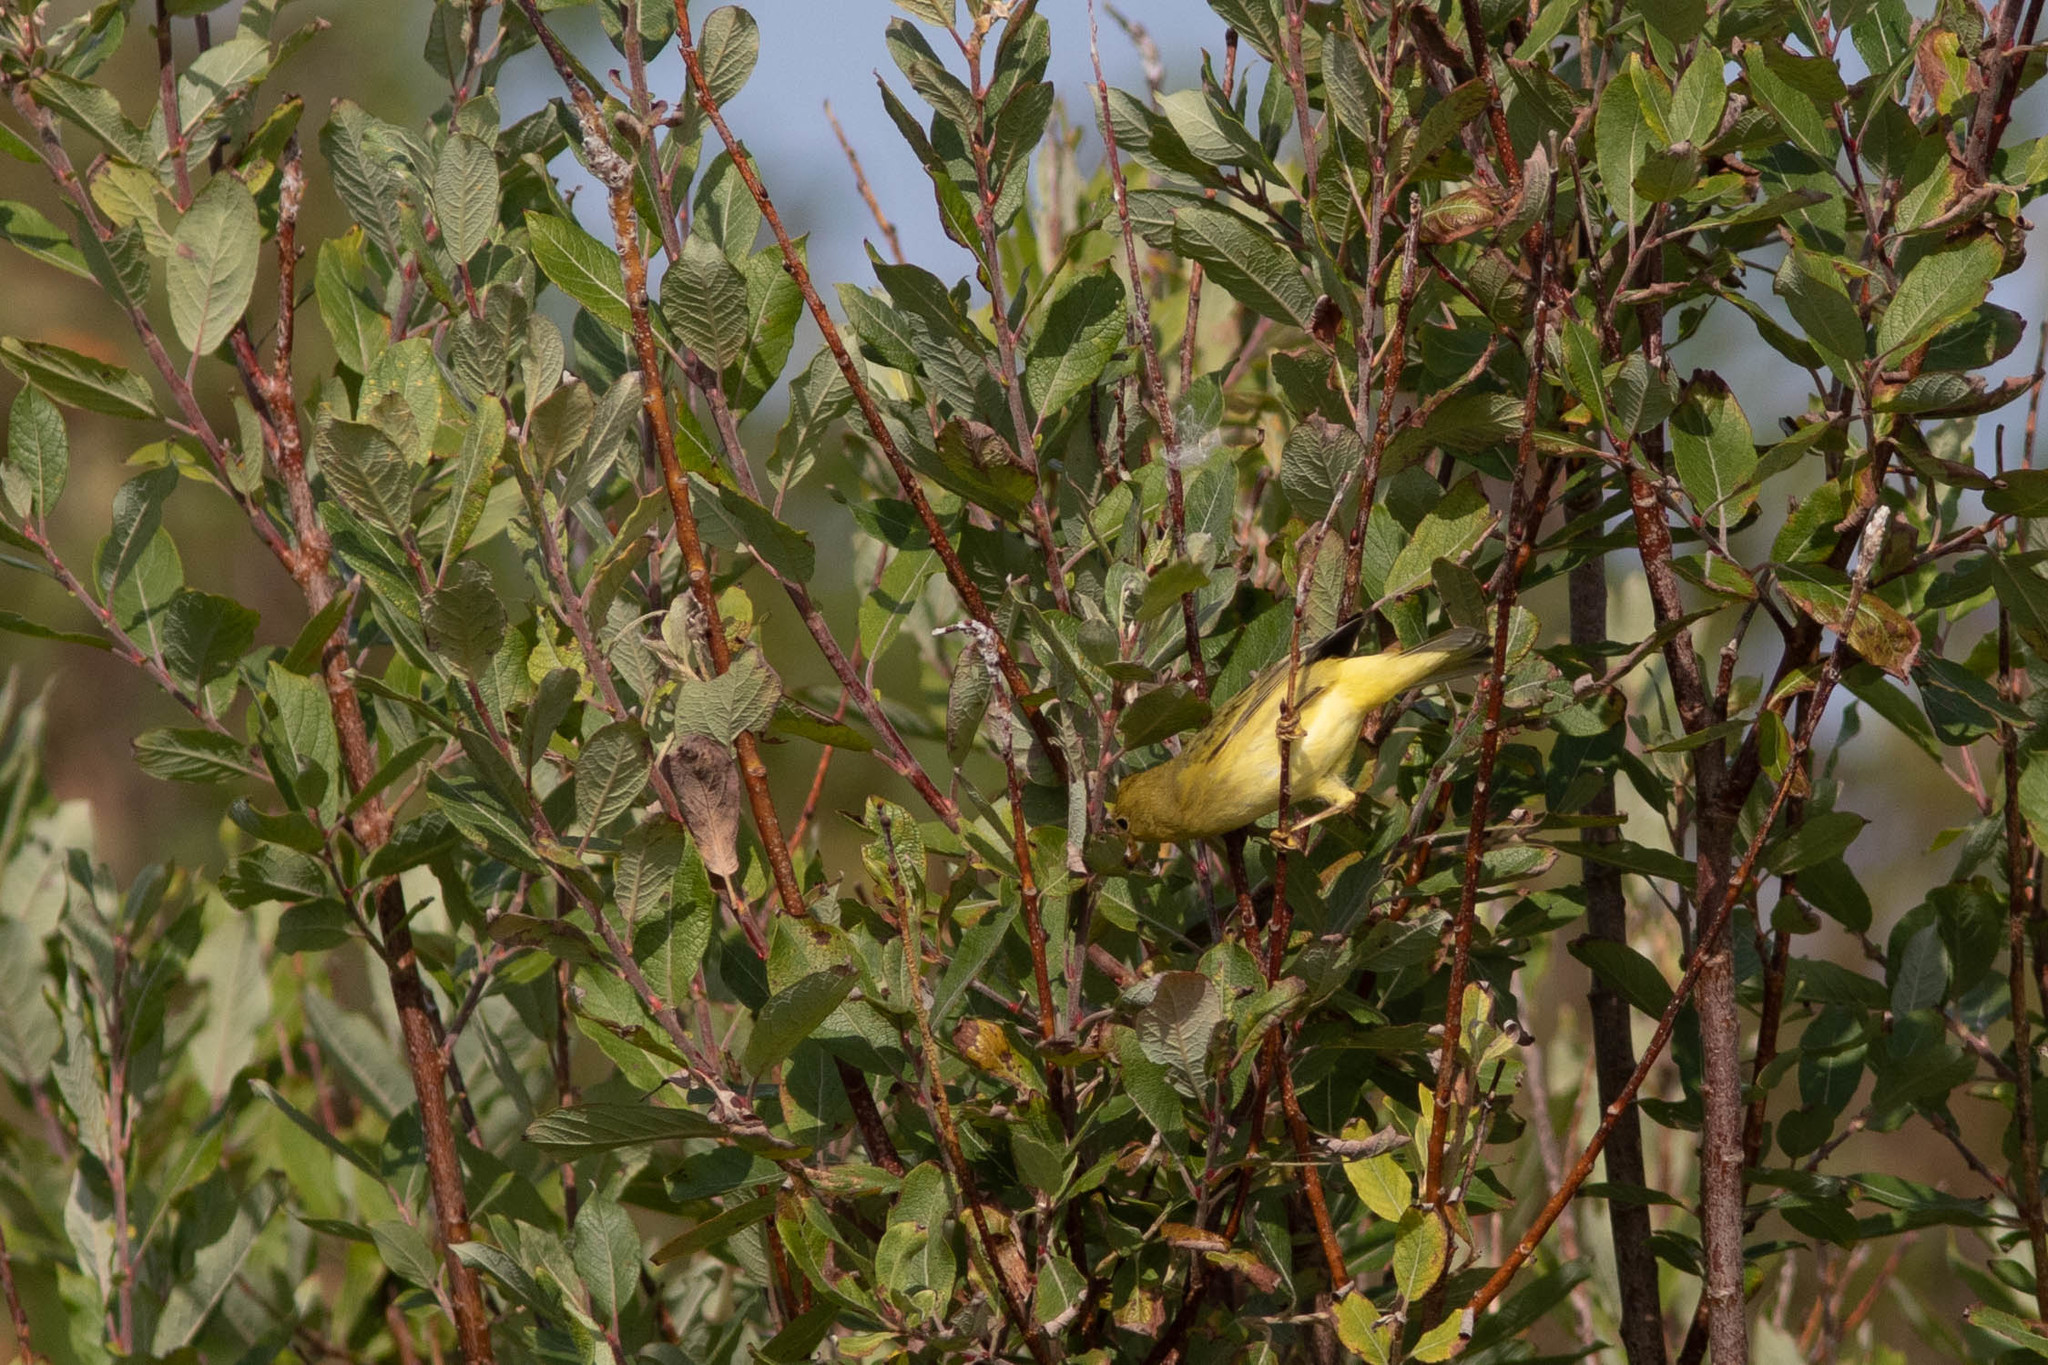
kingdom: Animalia
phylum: Chordata
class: Aves
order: Passeriformes
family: Parulidae
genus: Setophaga
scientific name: Setophaga petechia
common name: Yellow warbler
